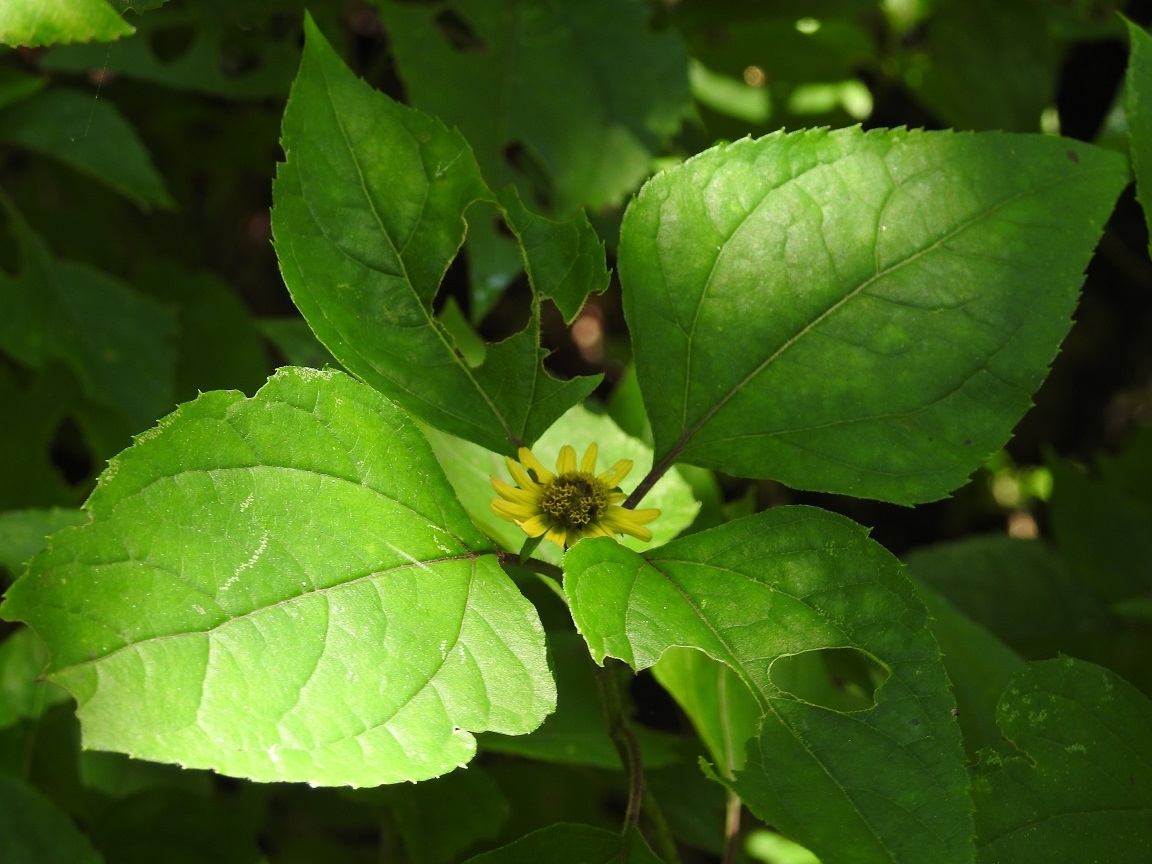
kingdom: Plantae
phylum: Tracheophyta
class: Magnoliopsida
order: Asterales
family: Asteraceae
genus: Philactis
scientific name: Philactis zinnioides
